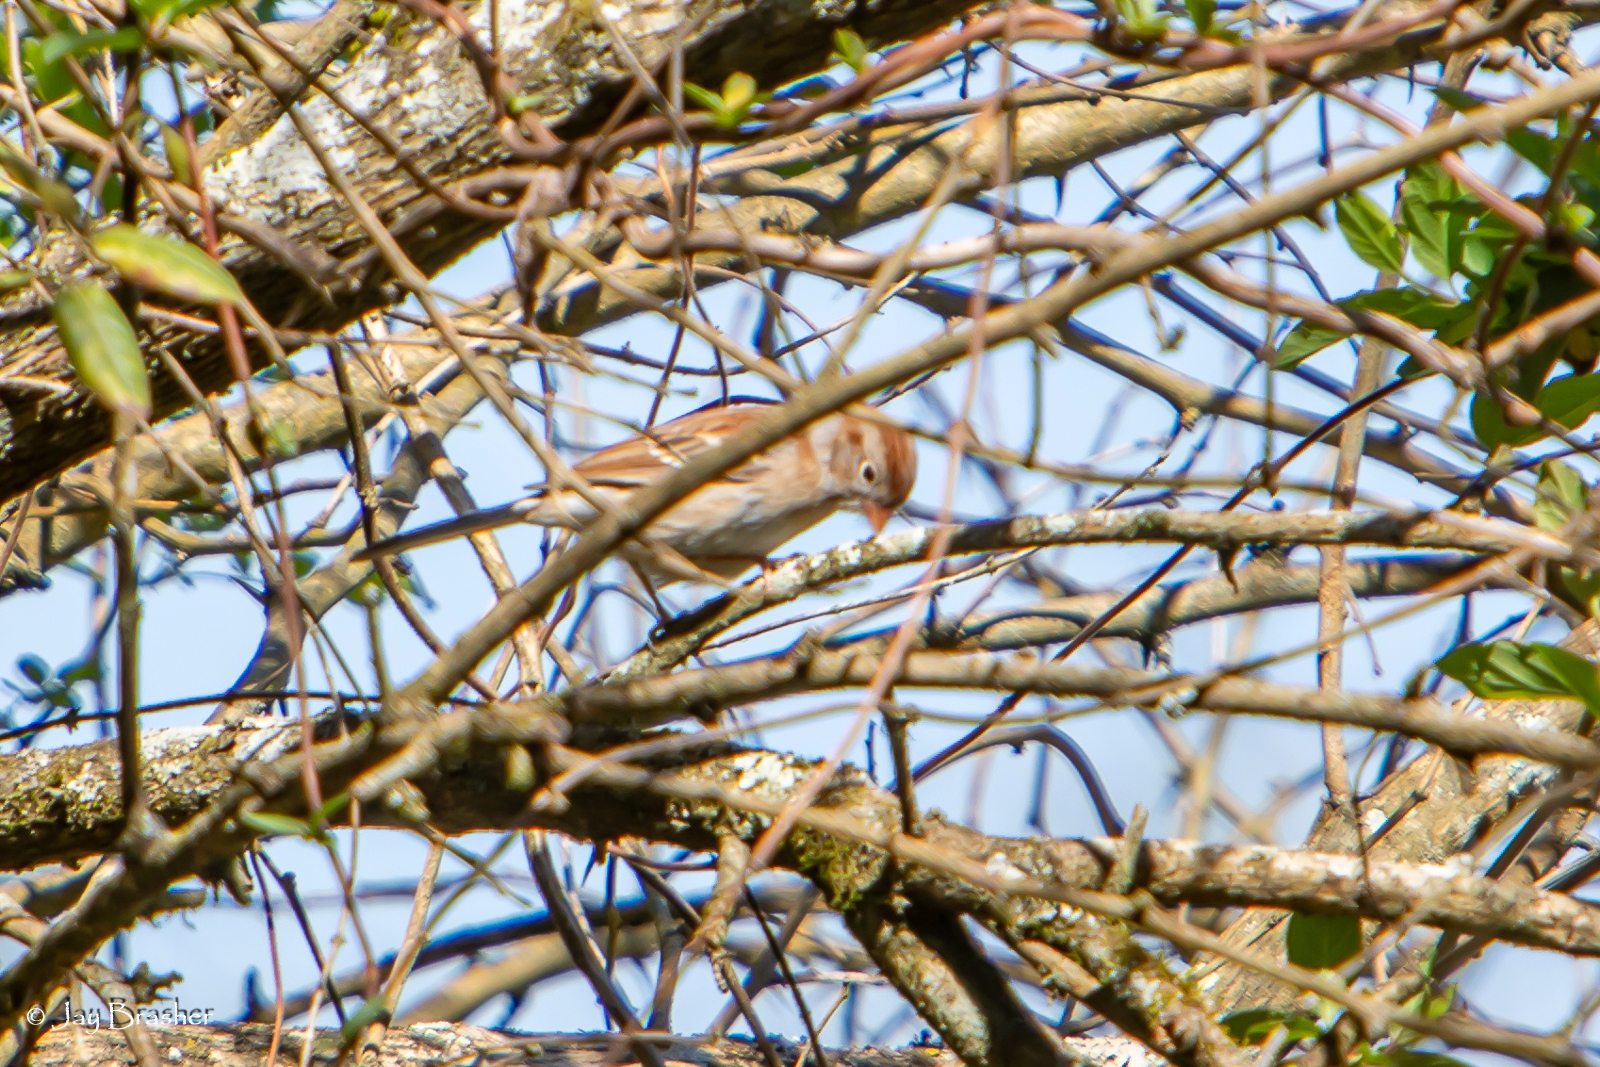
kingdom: Animalia
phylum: Chordata
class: Aves
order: Passeriformes
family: Passerellidae
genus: Spizella
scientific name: Spizella pusilla
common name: Field sparrow
